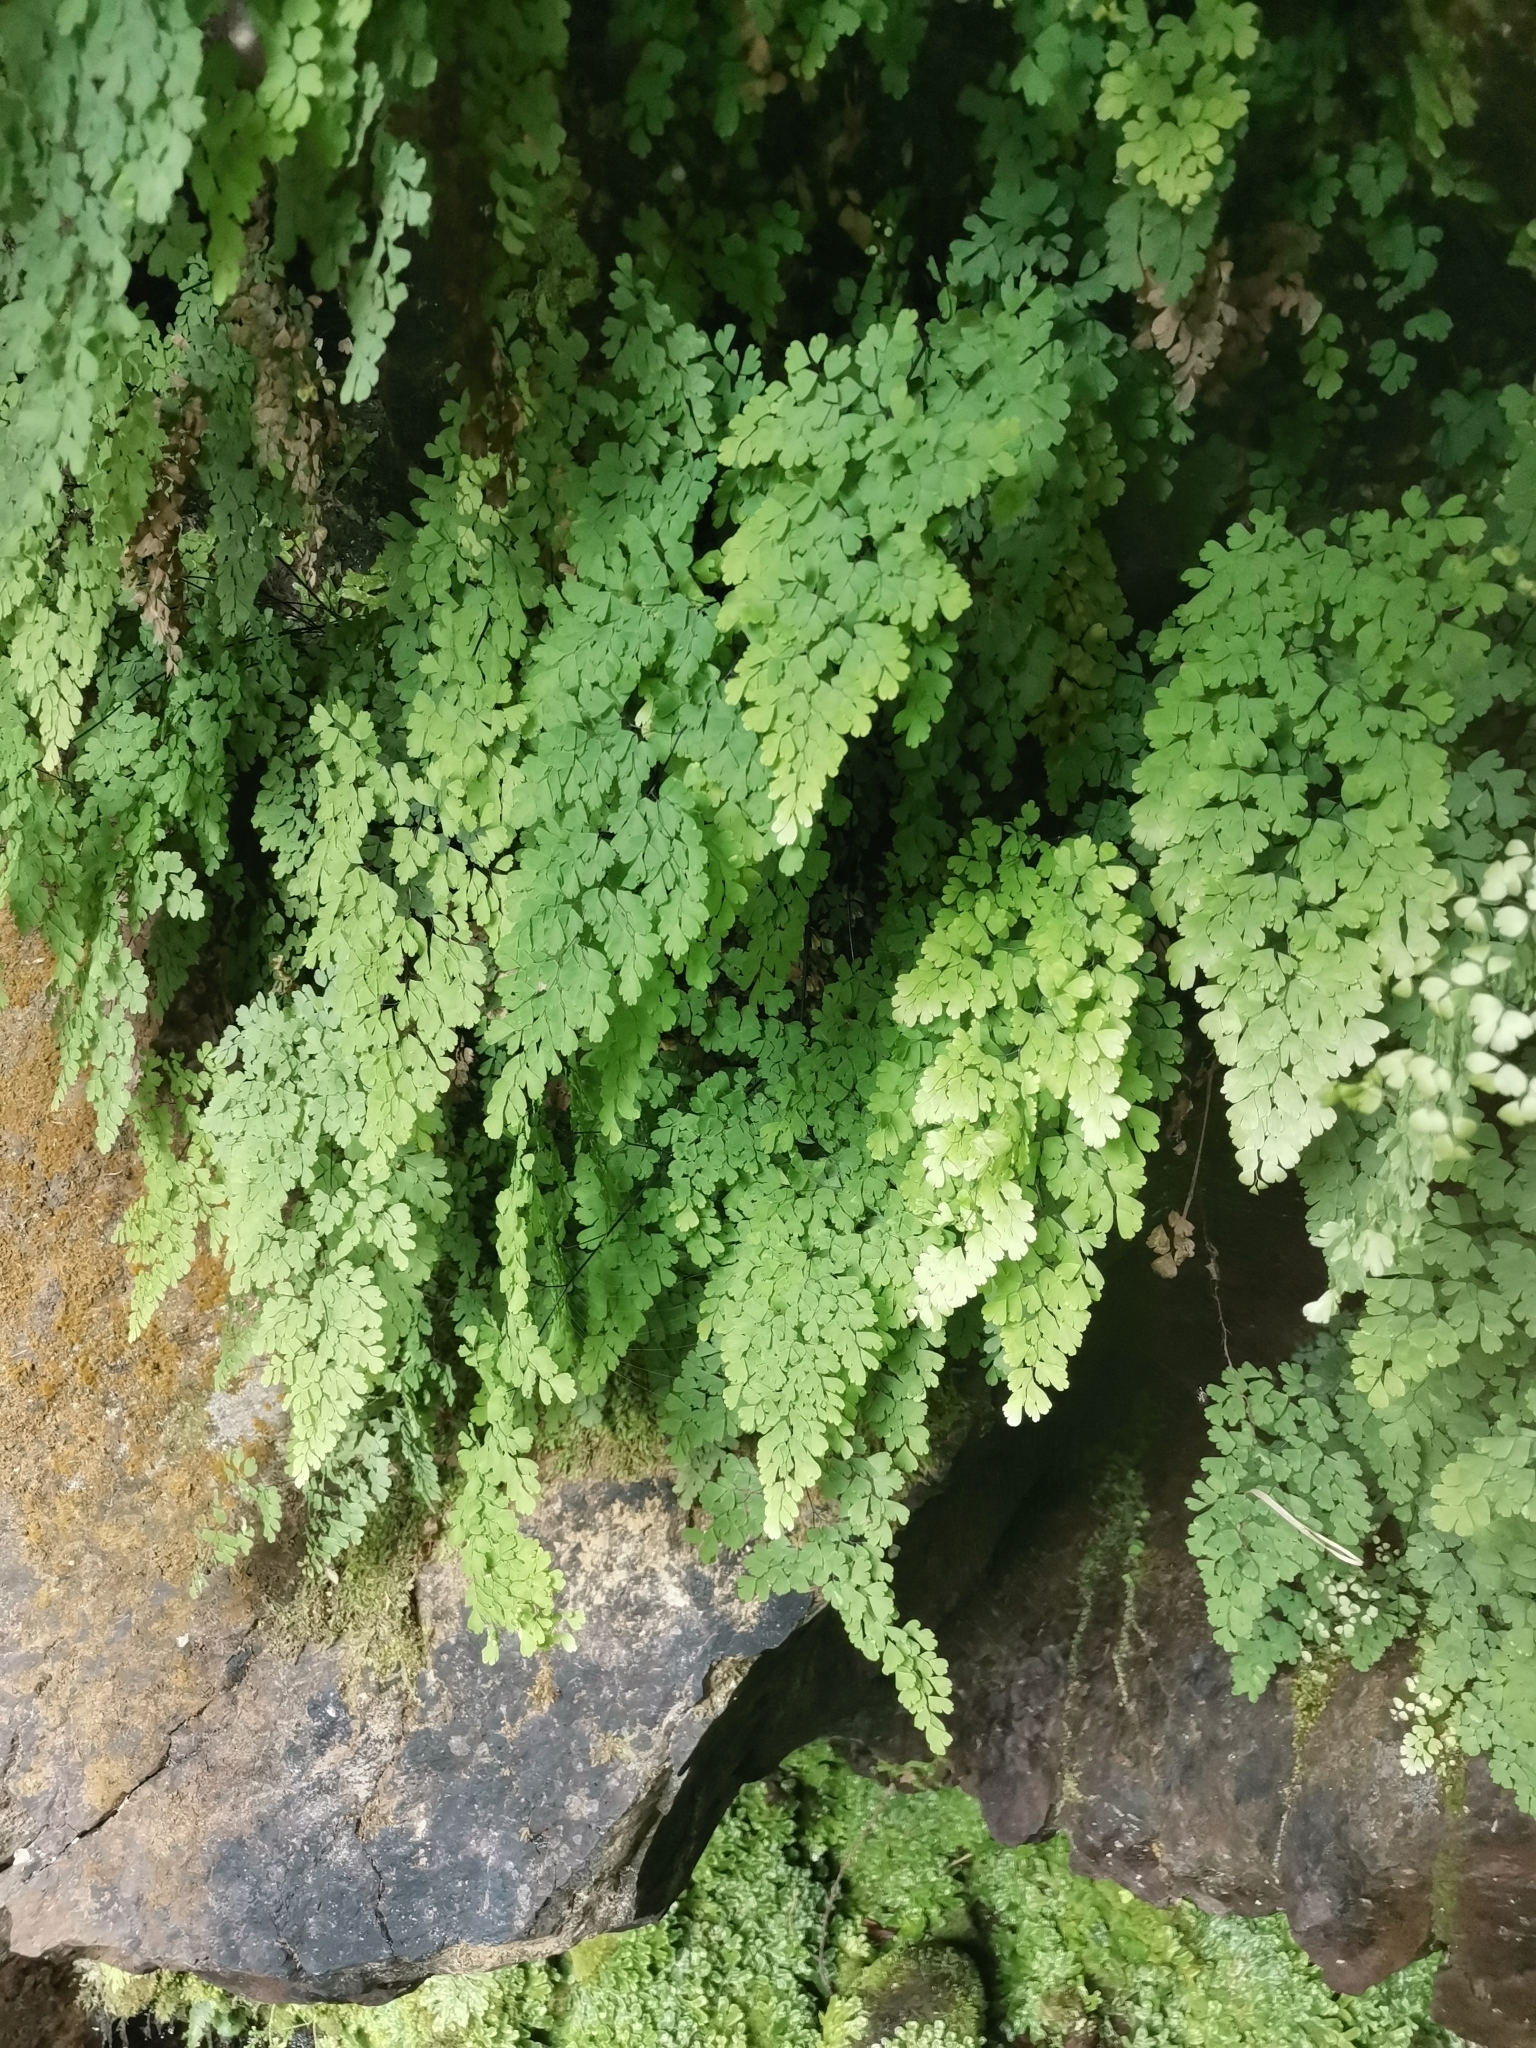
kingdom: Plantae
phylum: Tracheophyta
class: Polypodiopsida
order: Polypodiales
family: Pteridaceae
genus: Adiantum
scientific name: Adiantum capillus-veneris
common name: Maidenhair fern
